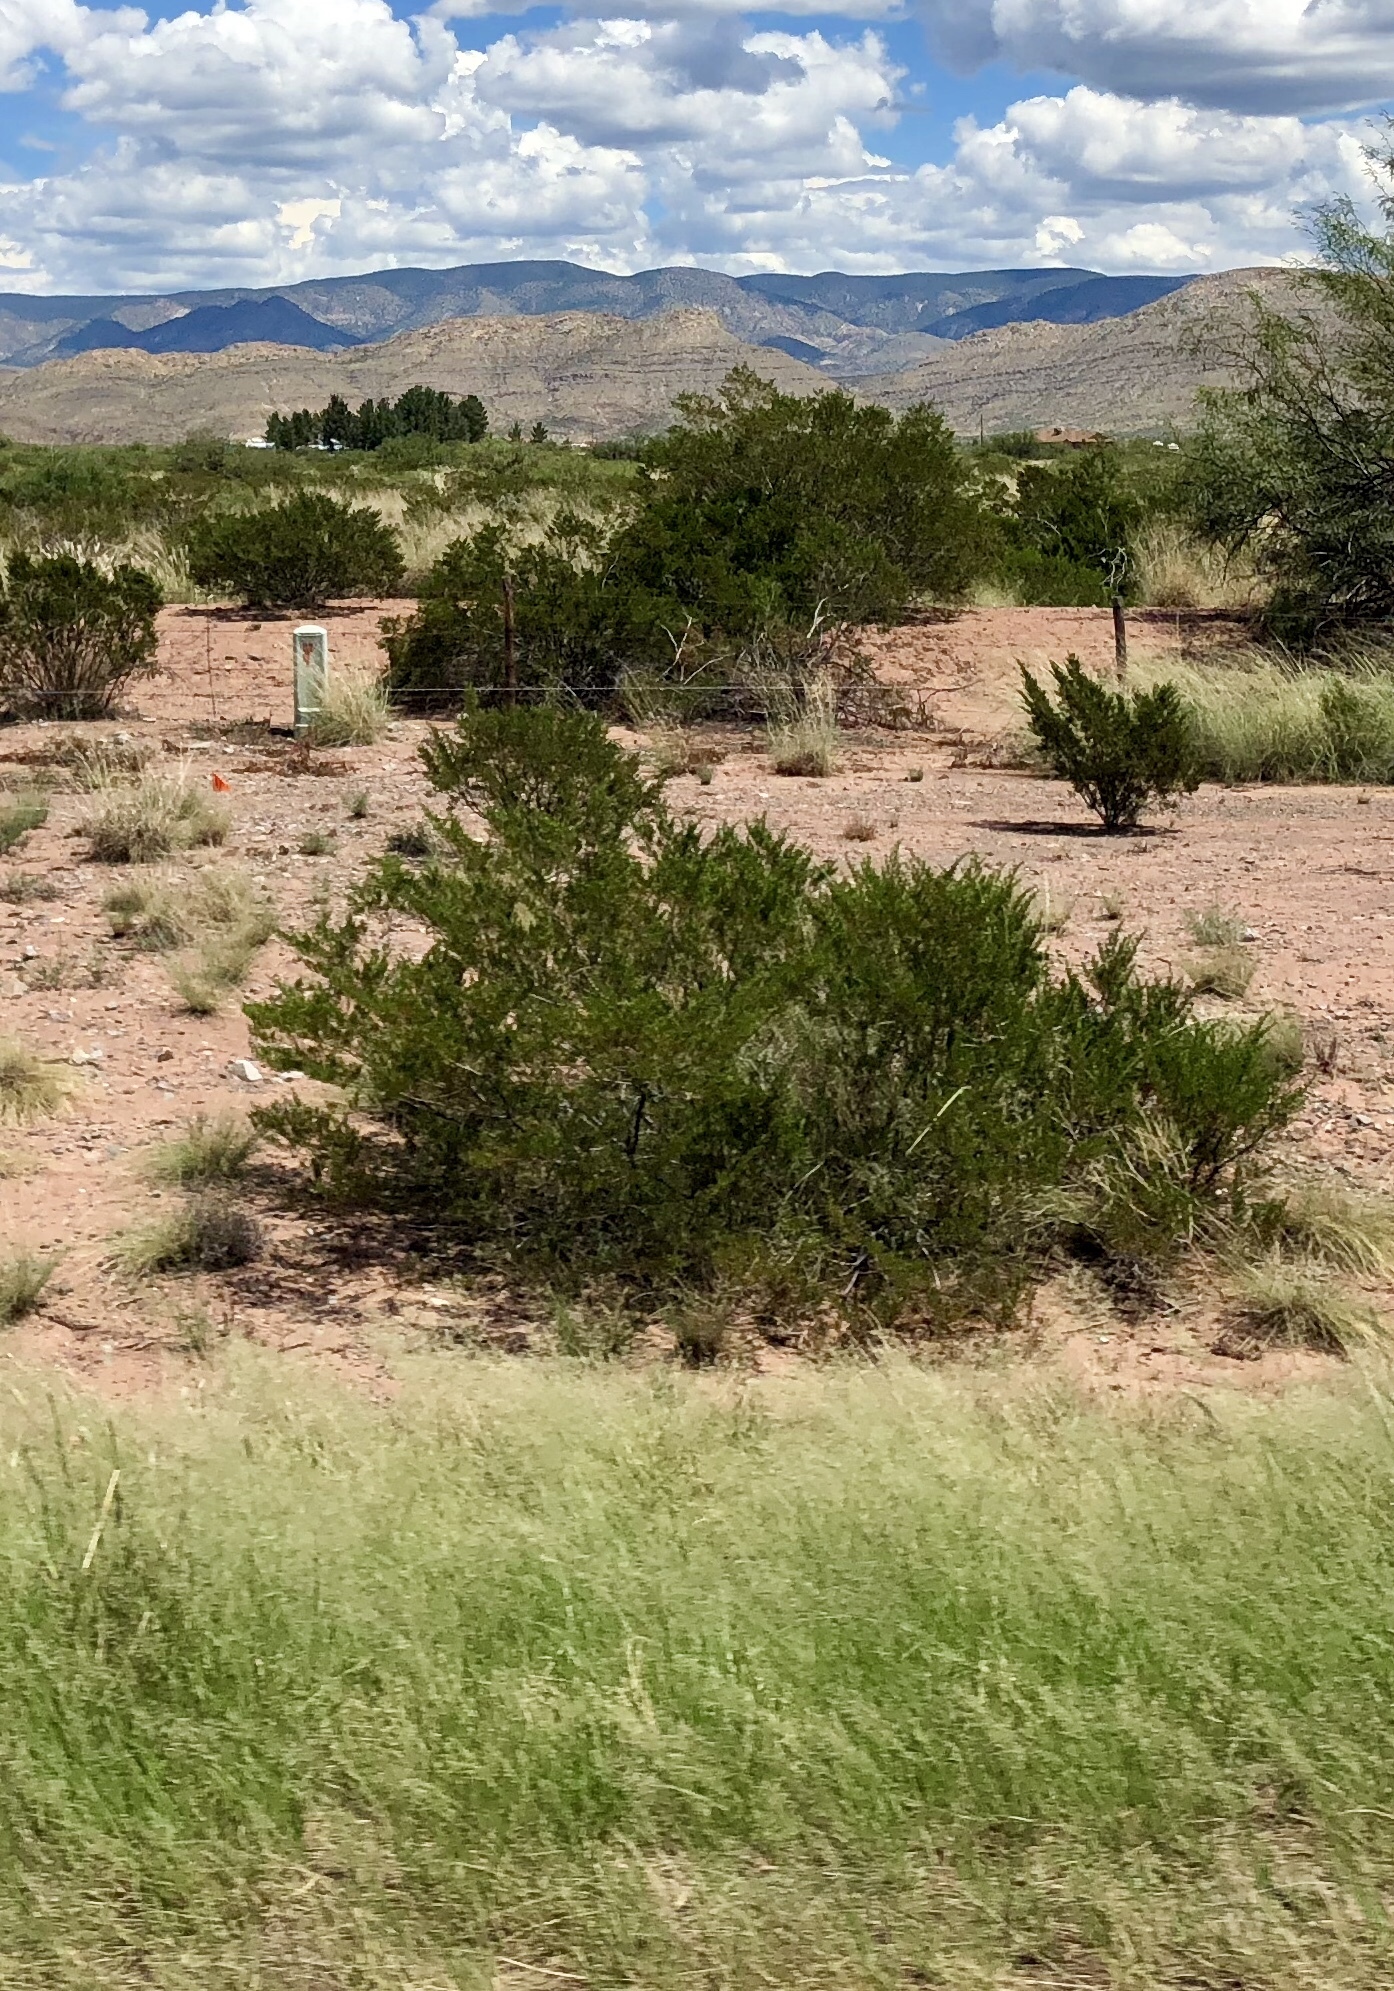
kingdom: Plantae
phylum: Tracheophyta
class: Magnoliopsida
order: Zygophyllales
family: Zygophyllaceae
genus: Larrea
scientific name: Larrea tridentata
